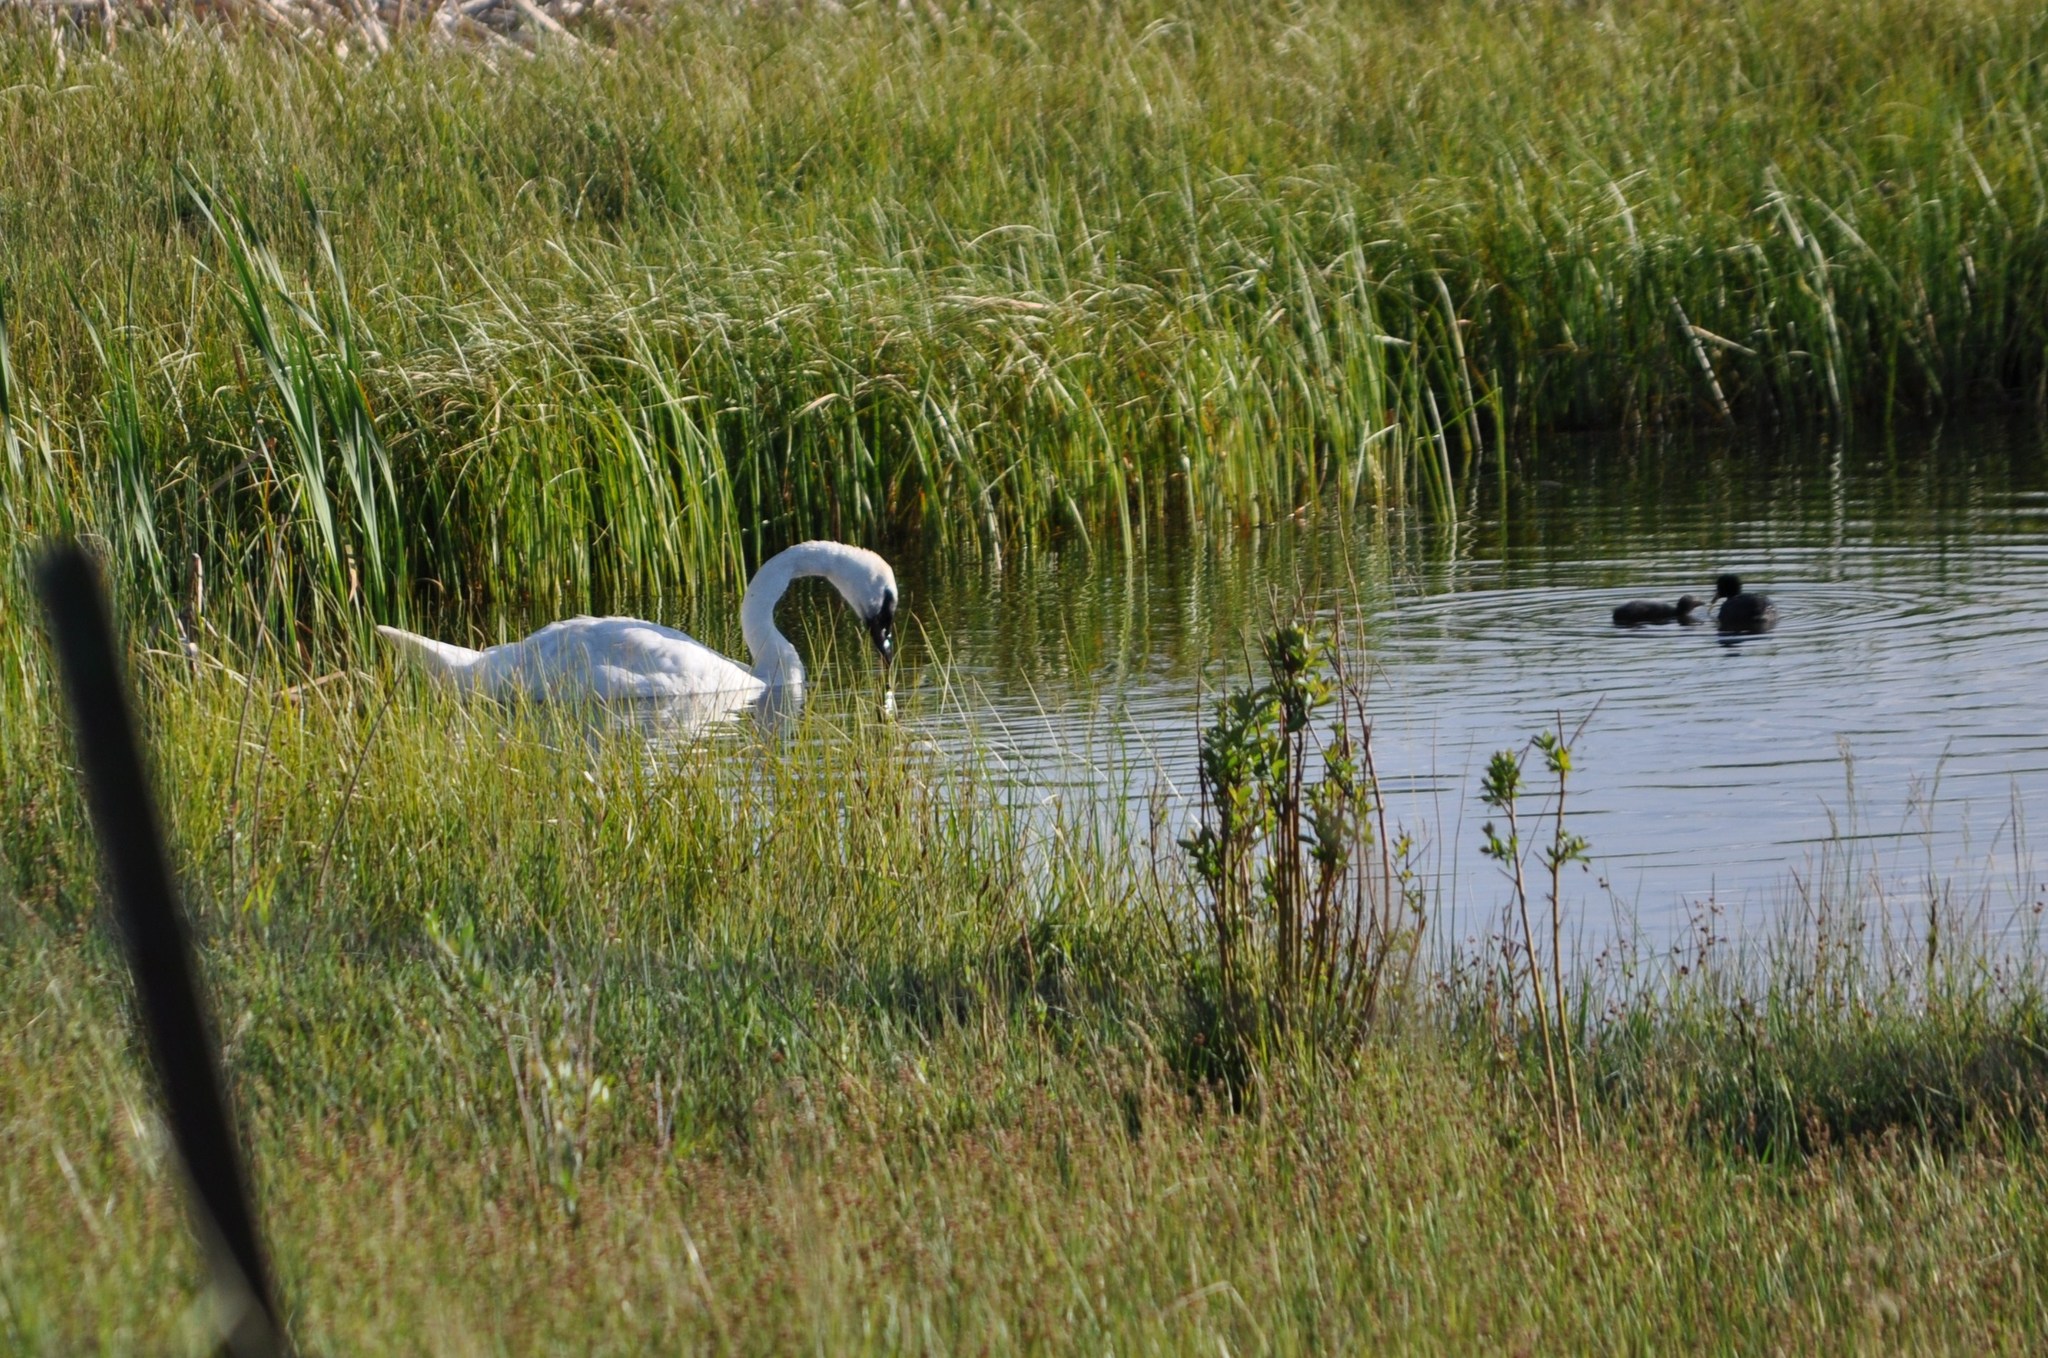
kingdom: Animalia
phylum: Chordata
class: Aves
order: Anseriformes
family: Anatidae
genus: Cygnus
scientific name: Cygnus buccinator
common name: Trumpeter swan
